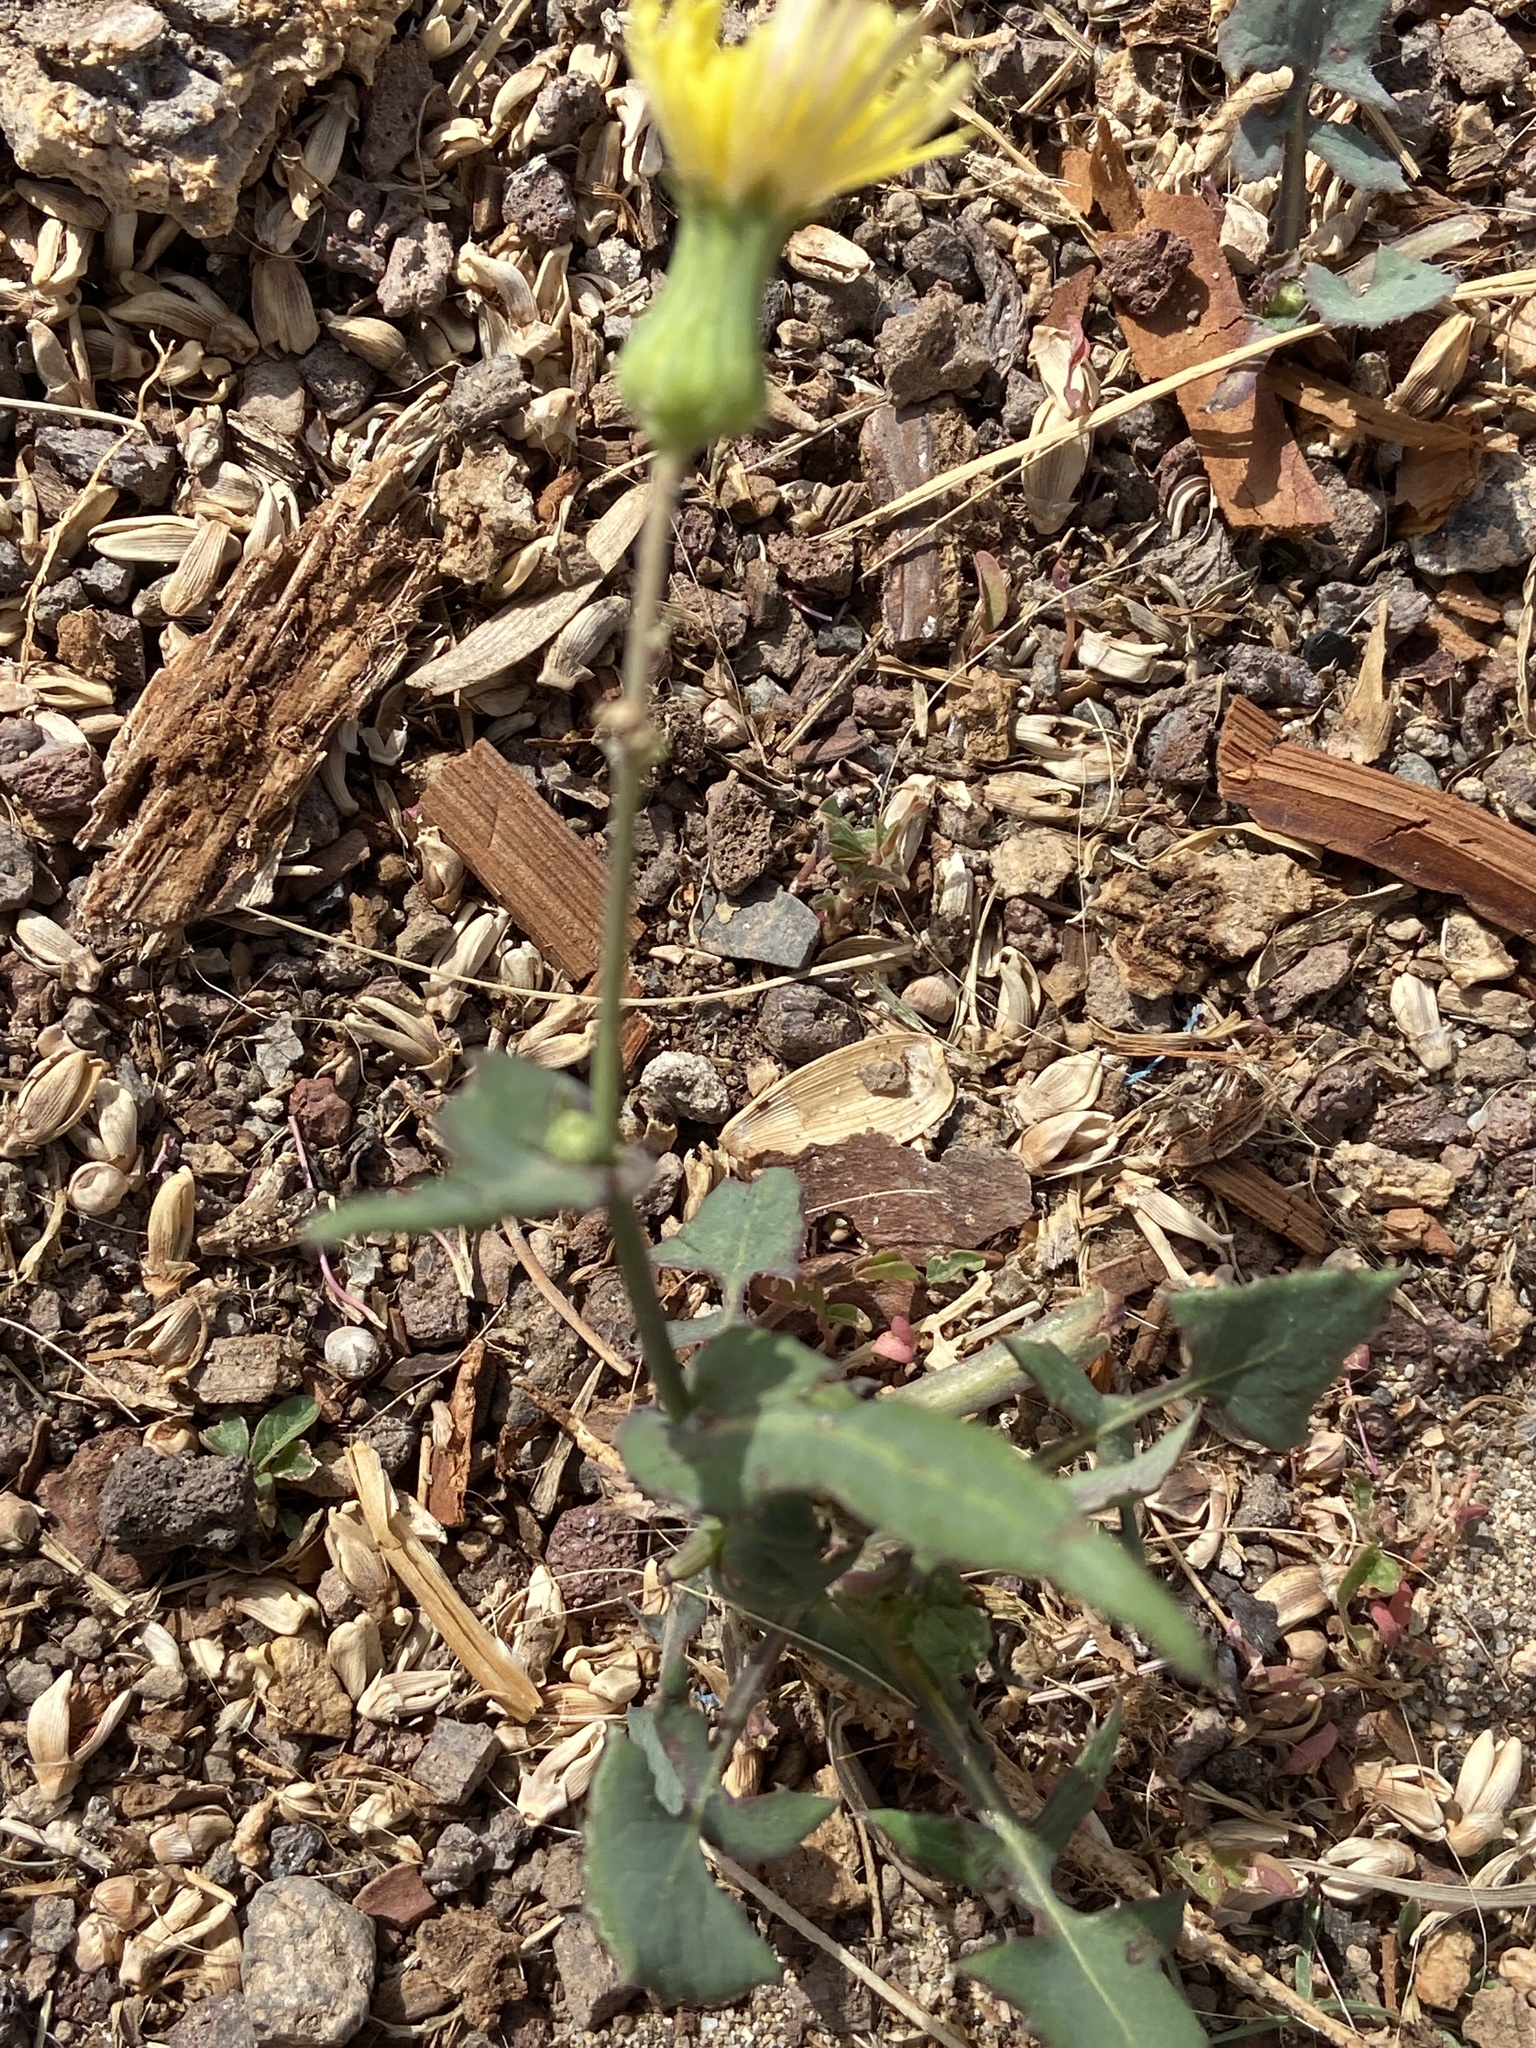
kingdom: Plantae
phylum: Tracheophyta
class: Magnoliopsida
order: Asterales
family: Asteraceae
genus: Sonchus
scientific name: Sonchus oleraceus
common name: Common sowthistle
